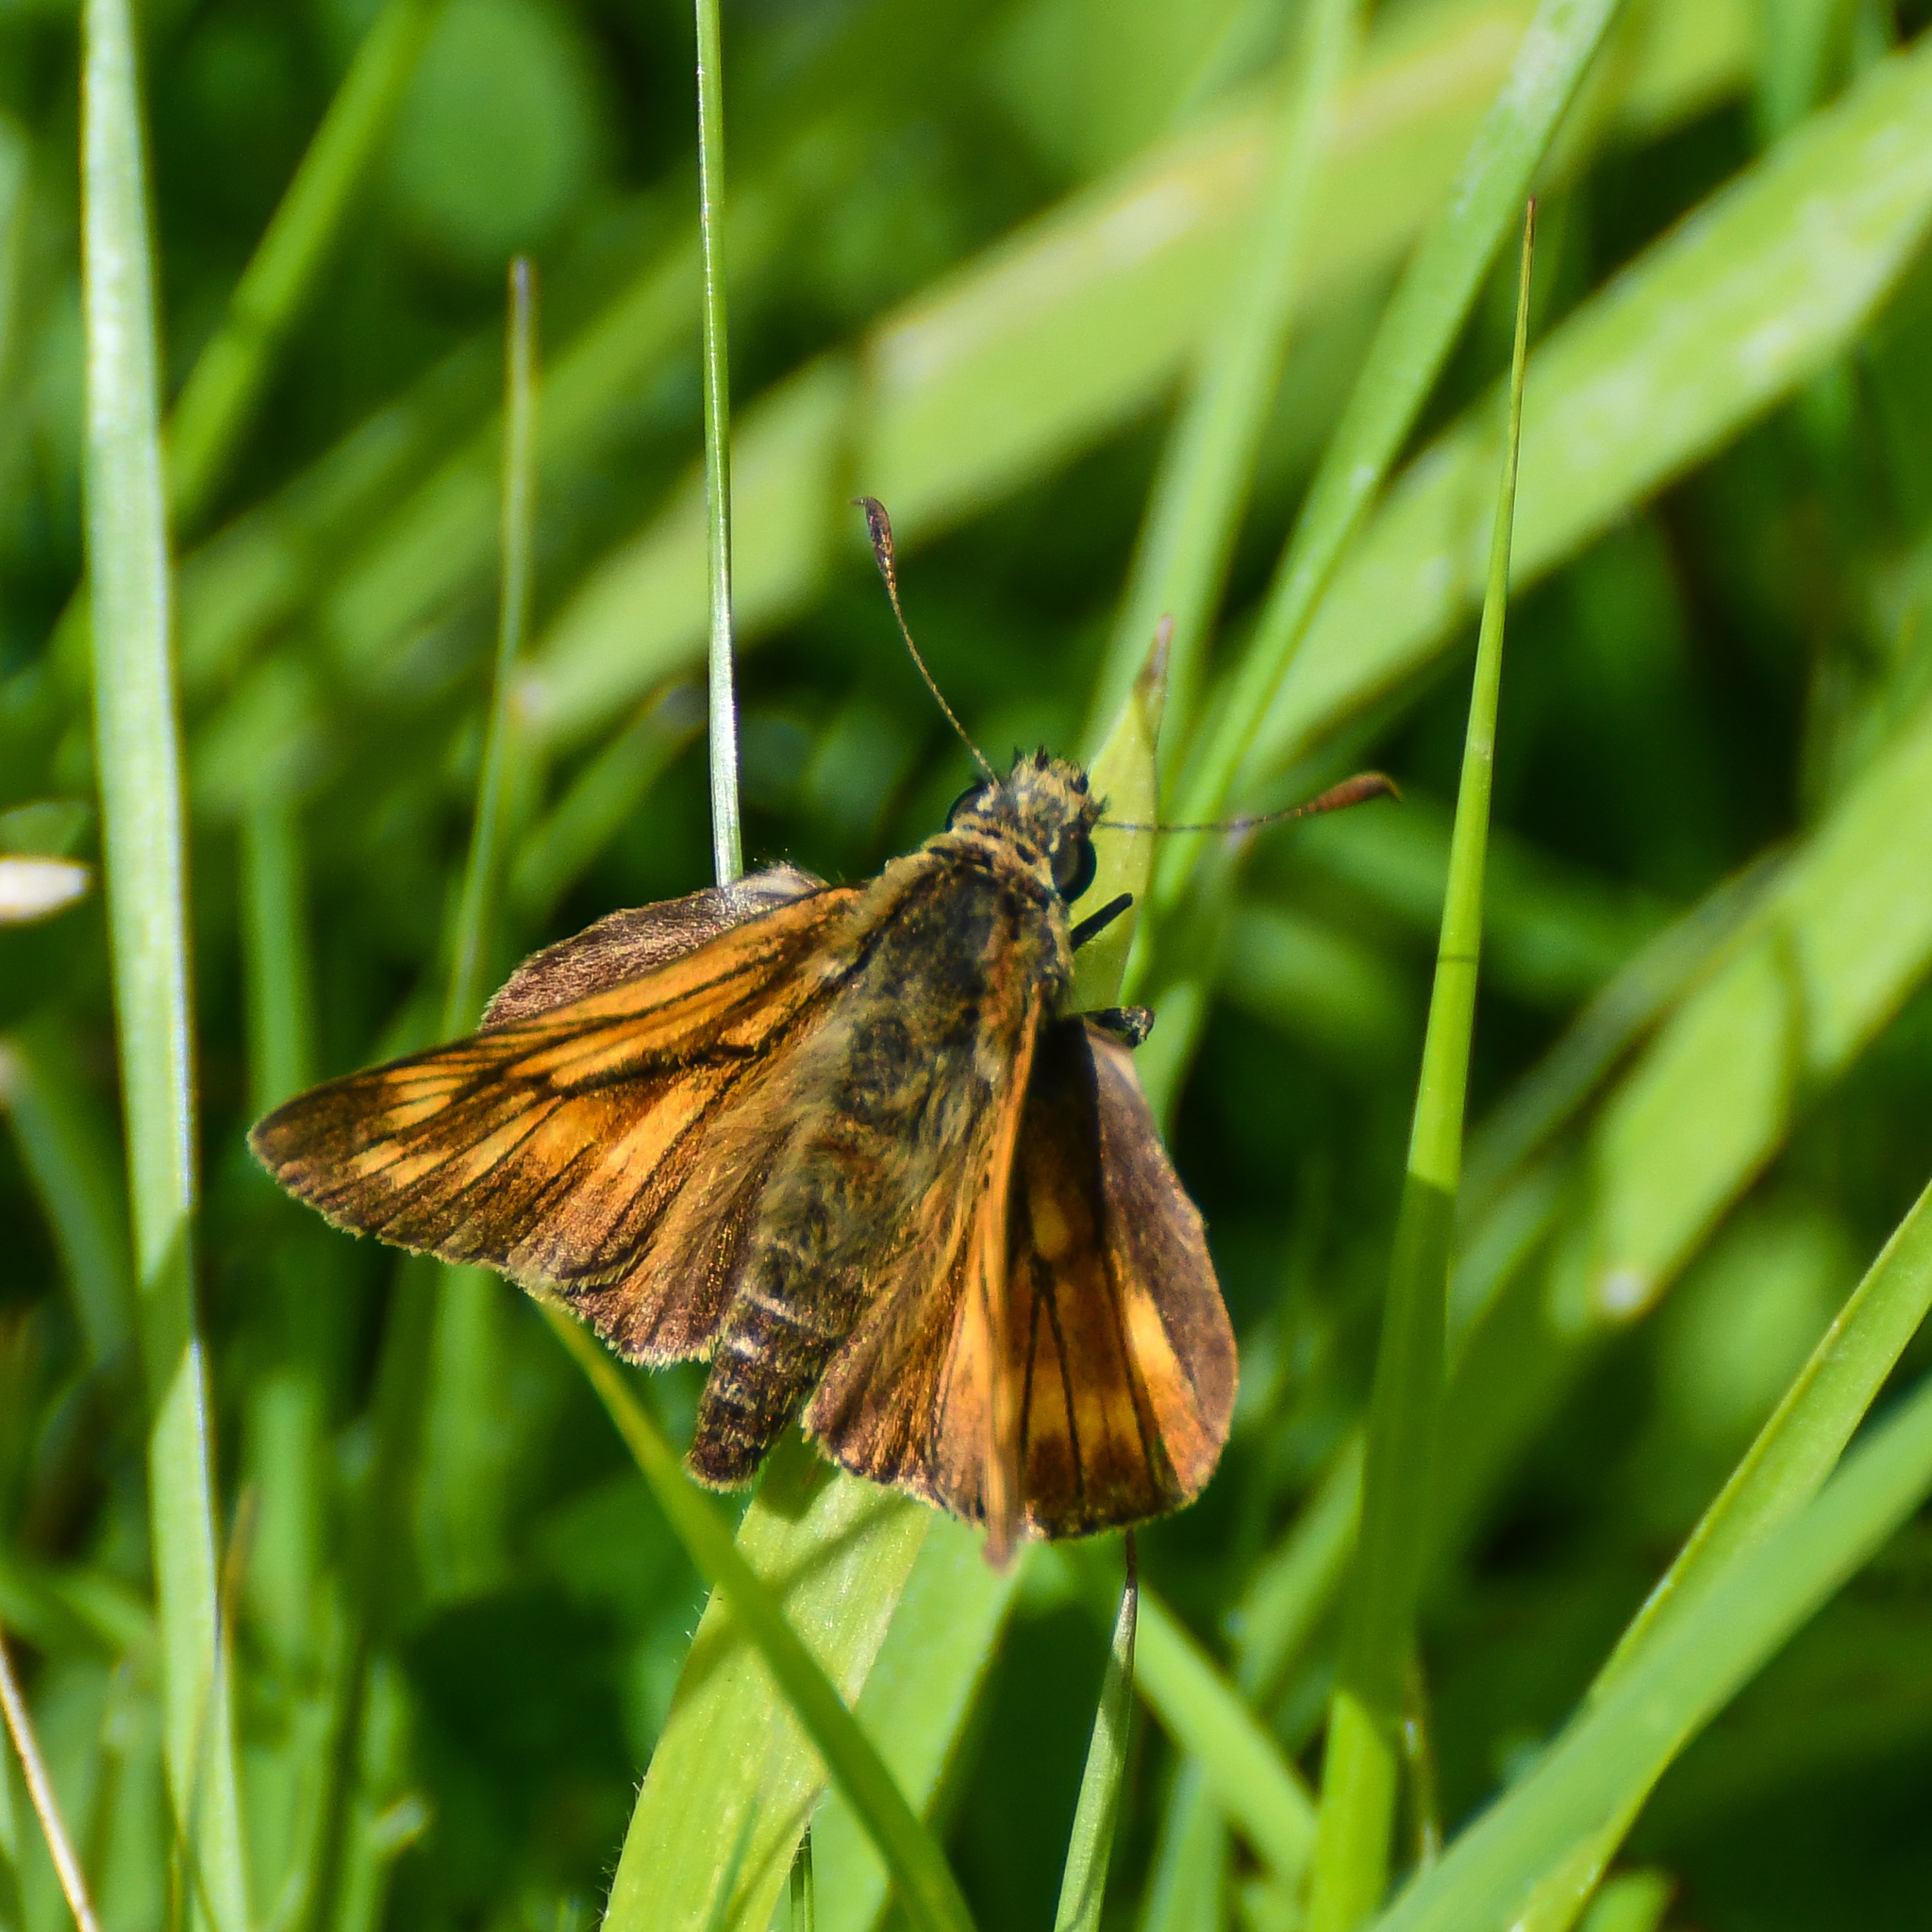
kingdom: Animalia
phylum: Arthropoda
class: Insecta
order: Lepidoptera
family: Hesperiidae
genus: Ochlodes
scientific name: Ochlodes venata
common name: Large skipper
